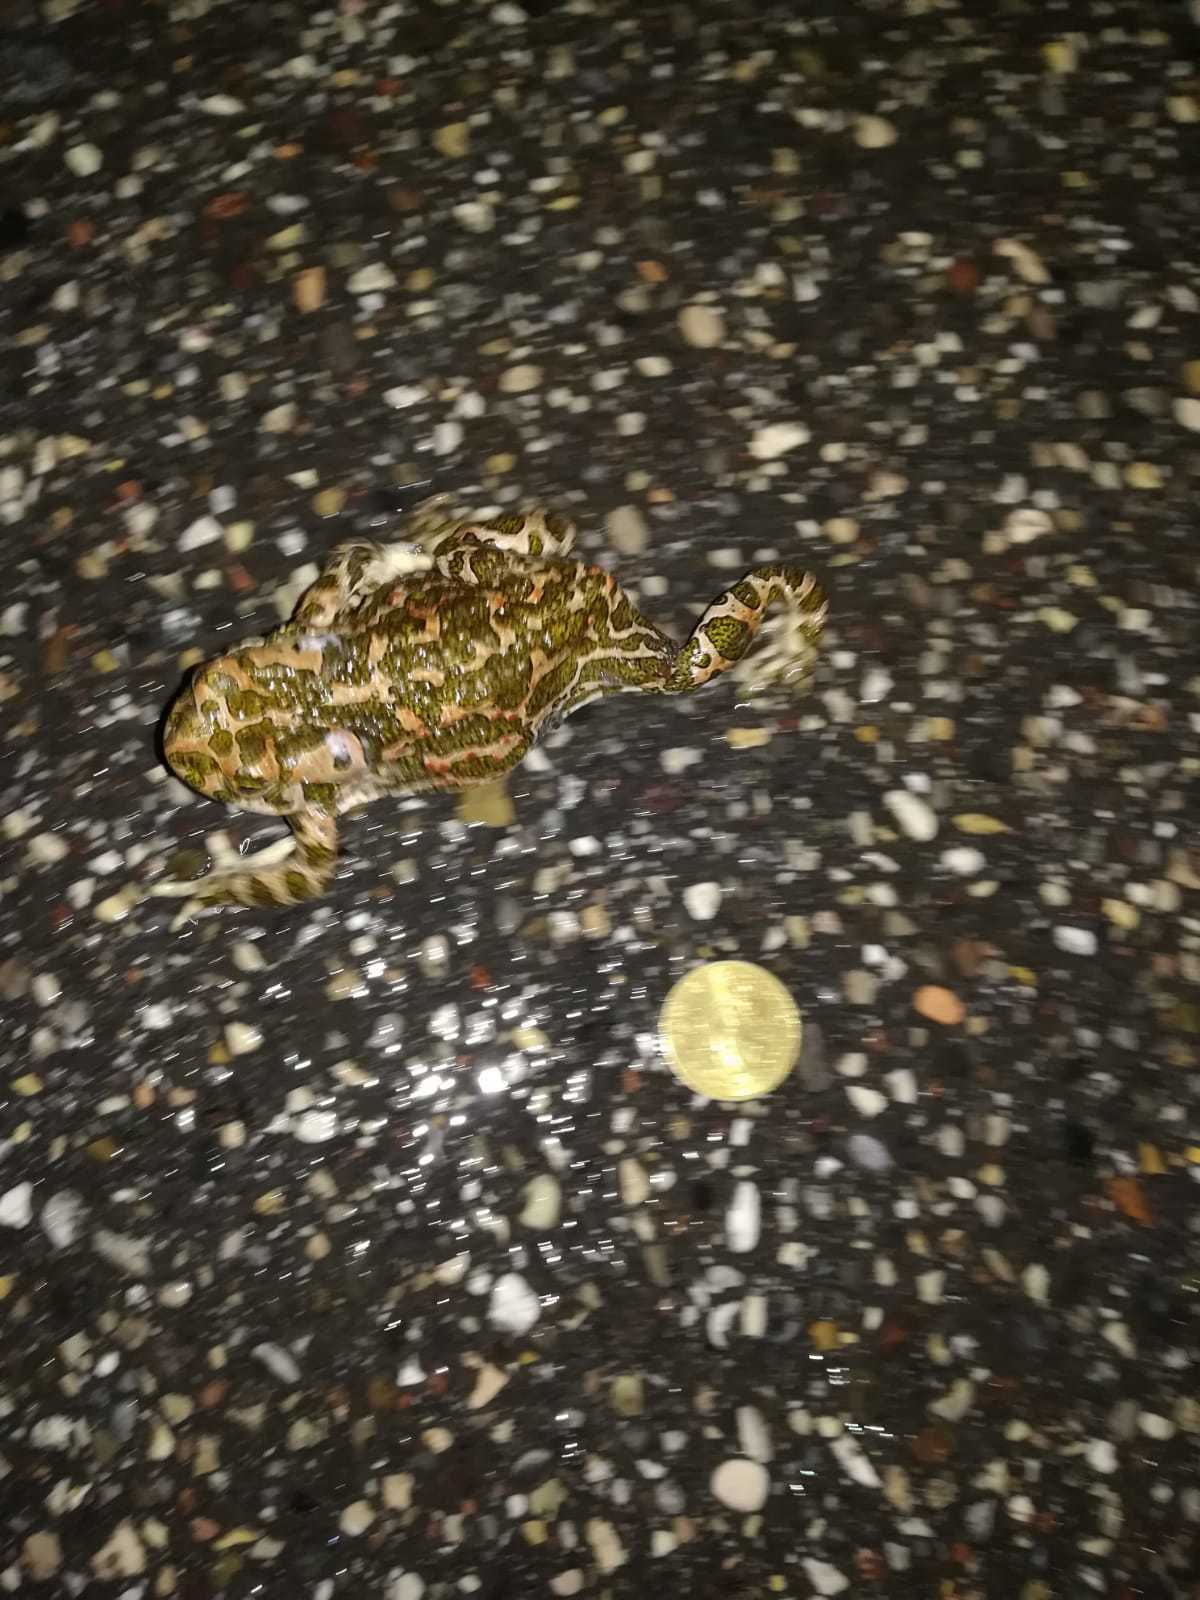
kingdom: Animalia
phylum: Chordata
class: Amphibia
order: Anura
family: Bufonidae
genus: Bufotes
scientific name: Bufotes viridis
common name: European green toad
